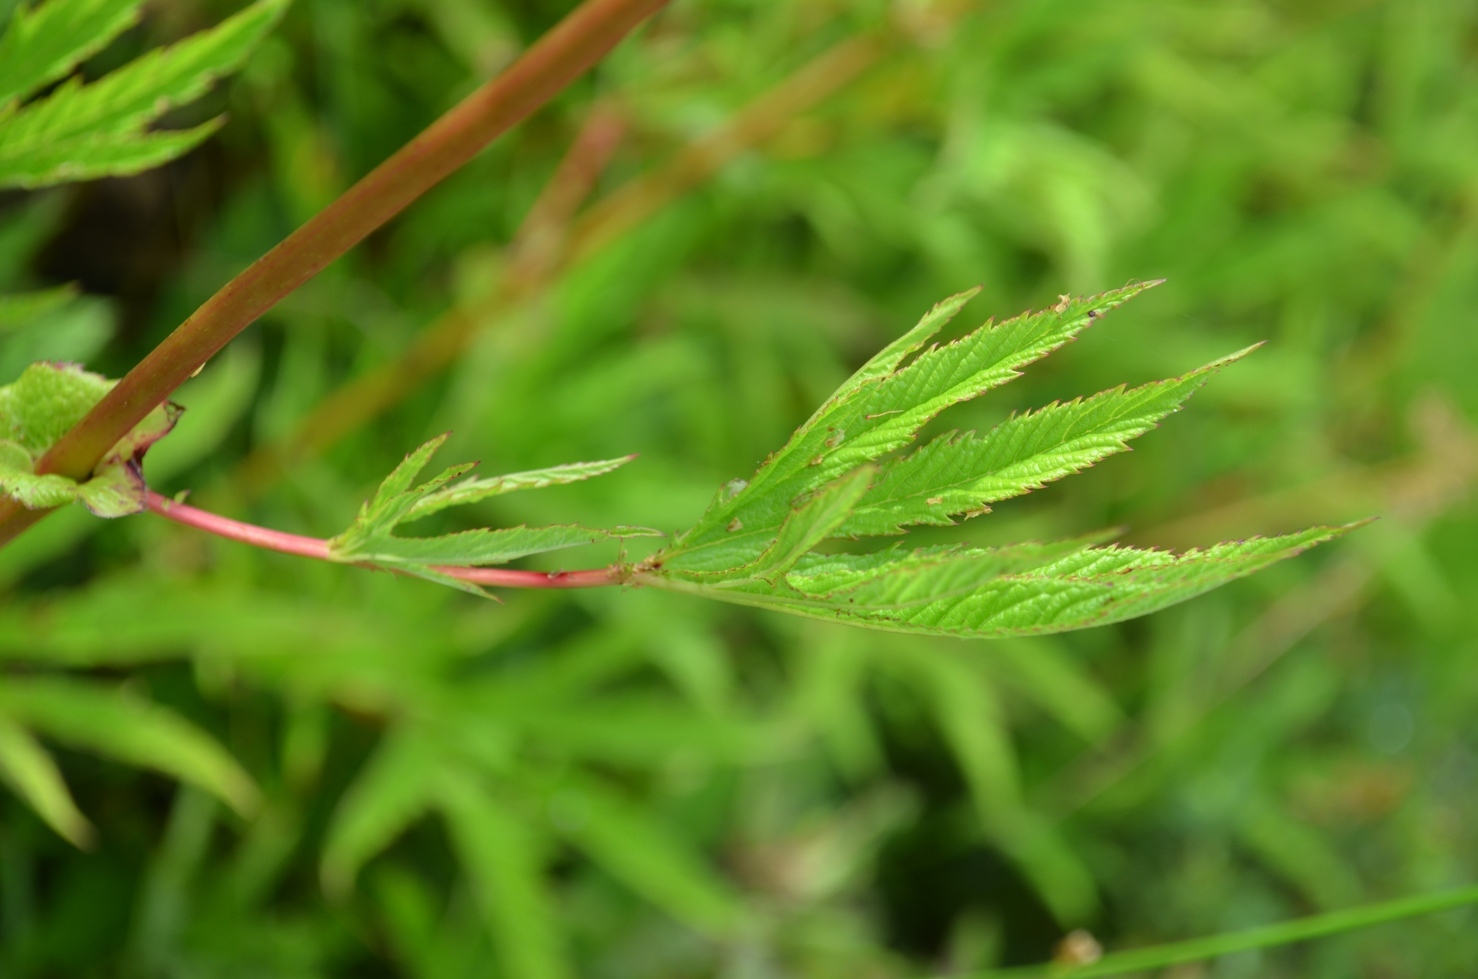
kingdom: Plantae
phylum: Tracheophyta
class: Magnoliopsida
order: Rosales
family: Rosaceae
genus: Filipendula
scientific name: Filipendula rubra
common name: Queen-of-the-prairie
